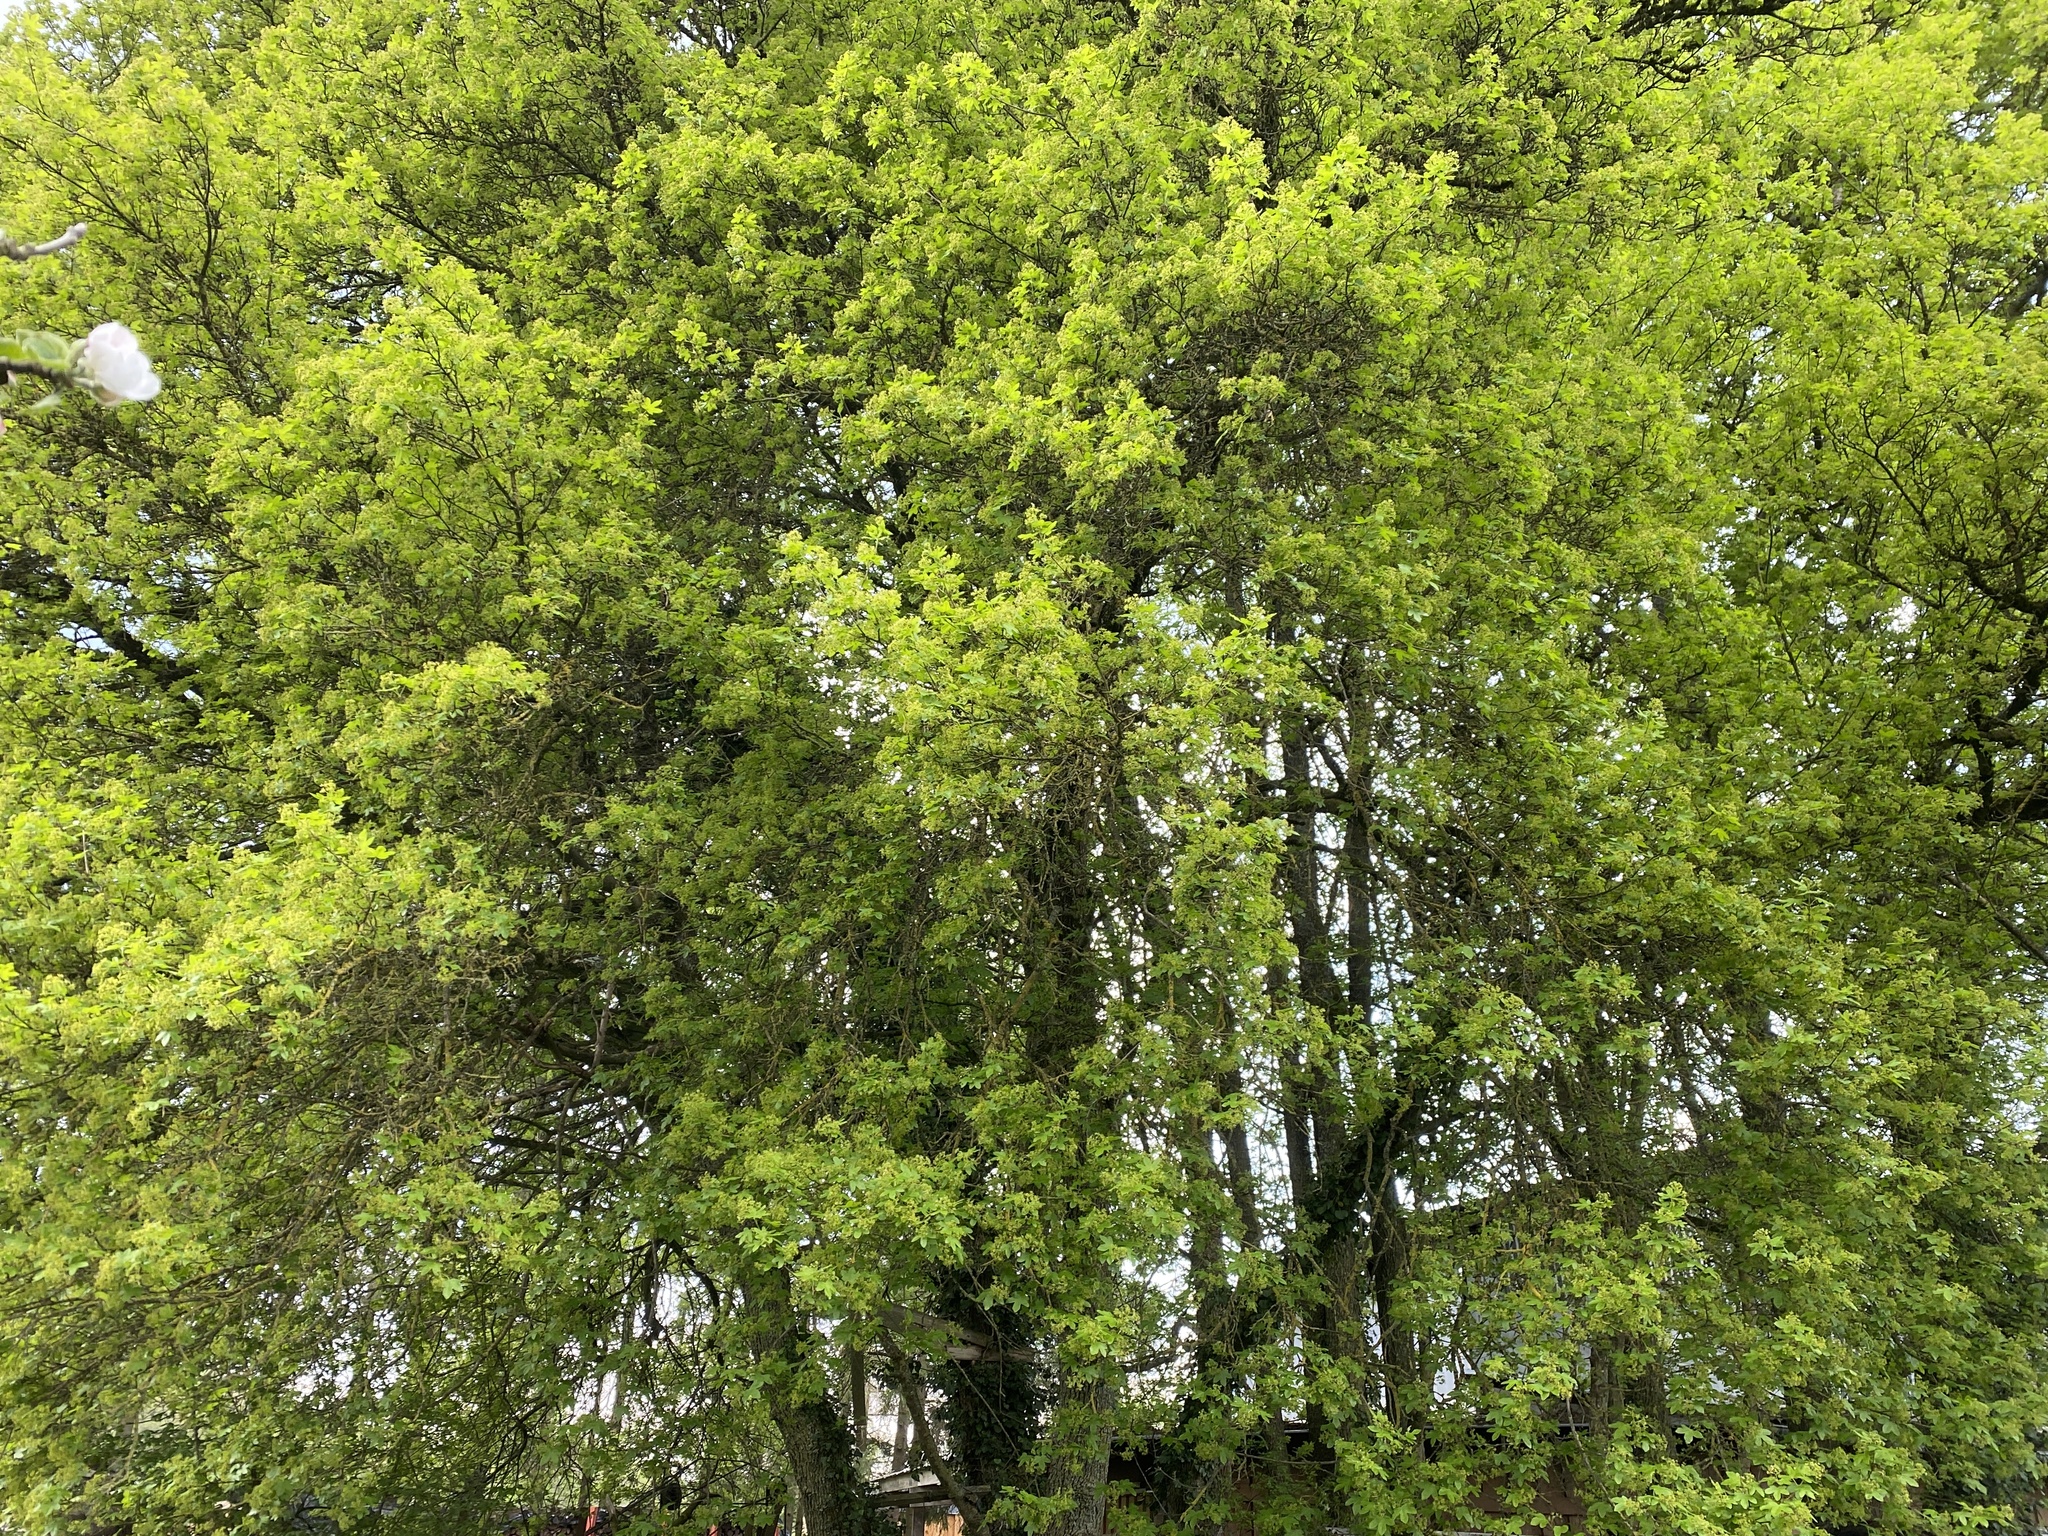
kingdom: Plantae
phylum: Tracheophyta
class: Magnoliopsida
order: Sapindales
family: Sapindaceae
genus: Acer
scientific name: Acer campestre
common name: Field maple
